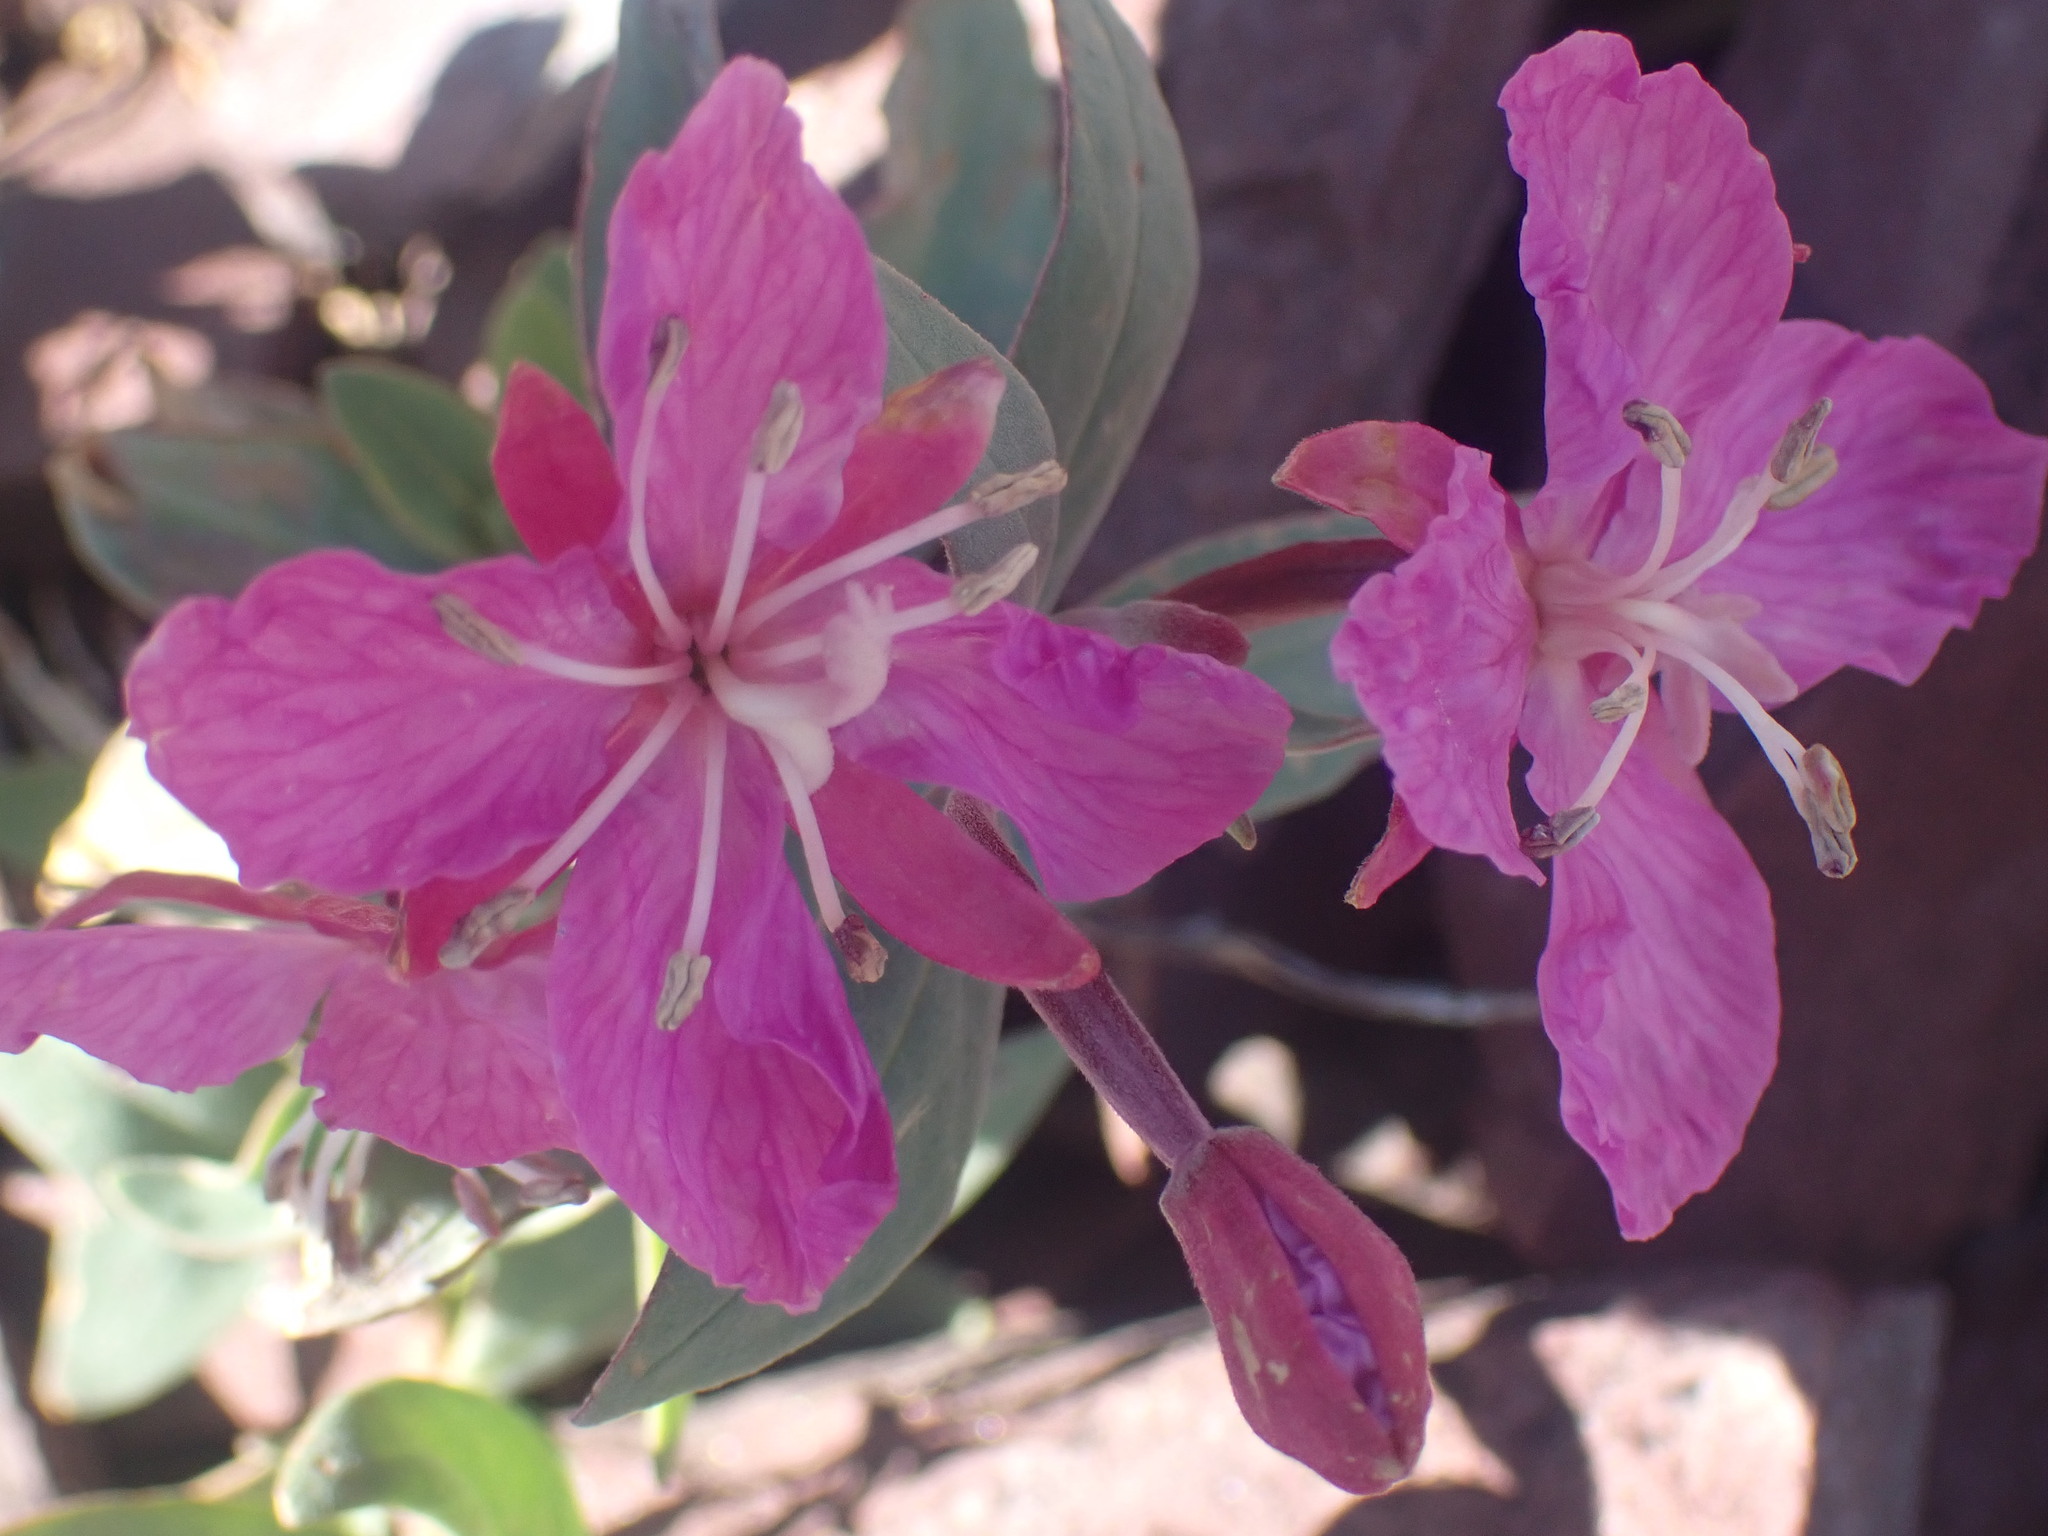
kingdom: Plantae
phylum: Tracheophyta
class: Magnoliopsida
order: Myrtales
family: Onagraceae
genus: Chamaenerion
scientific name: Chamaenerion latifolium
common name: Dwarf fireweed
